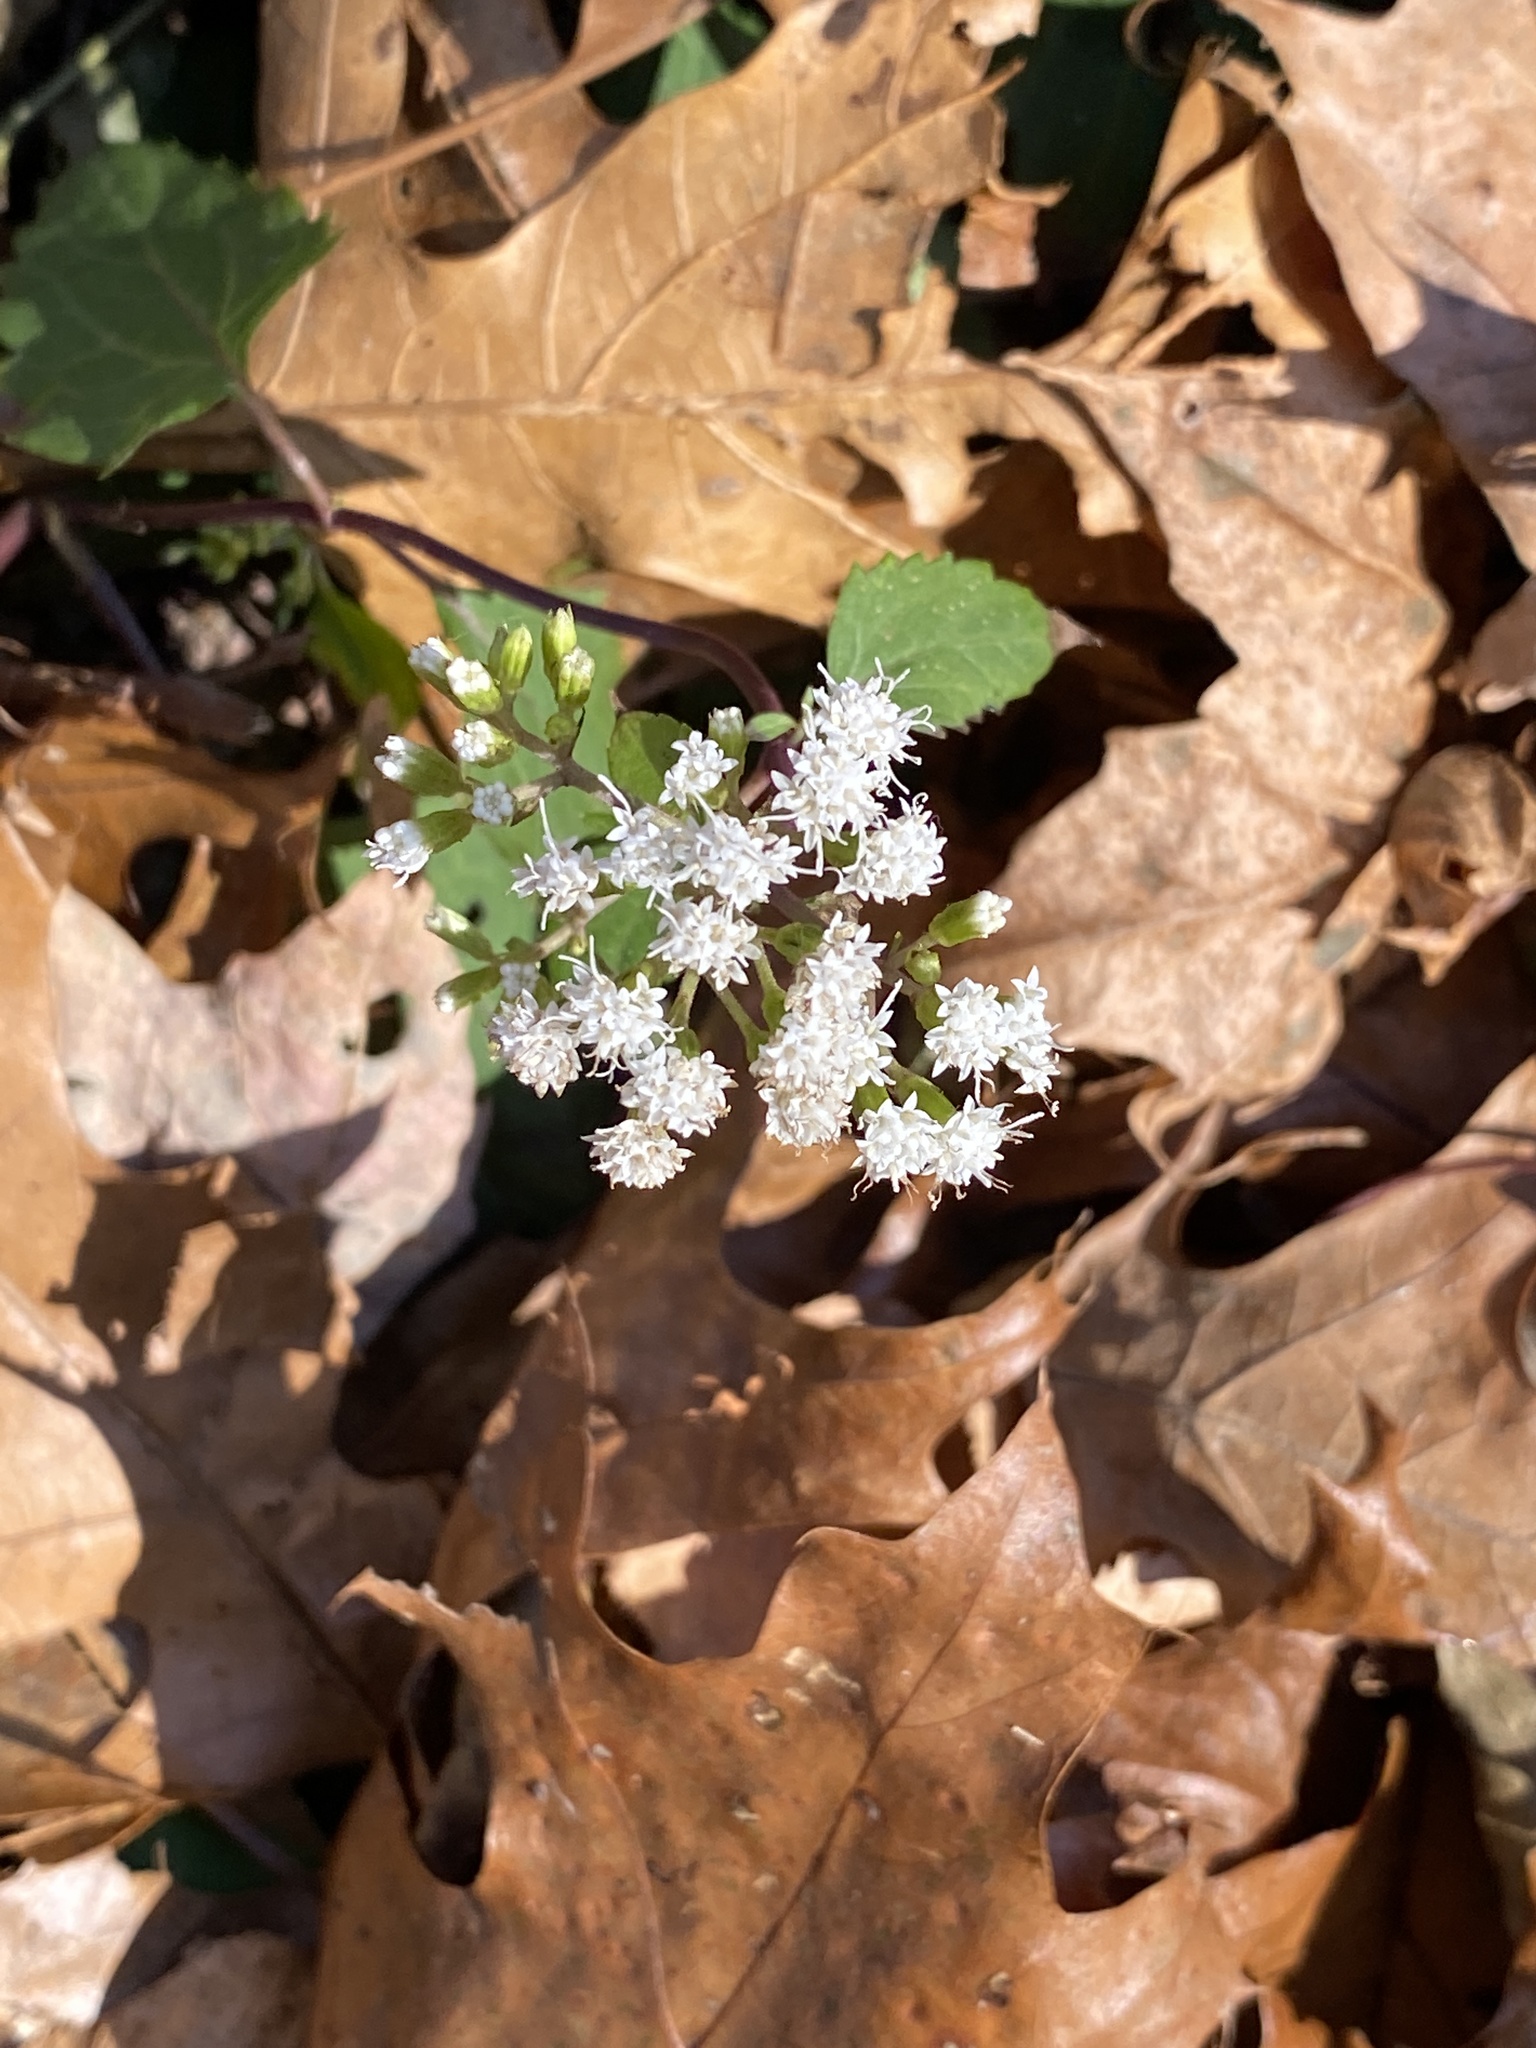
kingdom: Plantae
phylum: Tracheophyta
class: Magnoliopsida
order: Asterales
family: Asteraceae
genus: Ageratina
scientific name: Ageratina altissima
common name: White snakeroot
